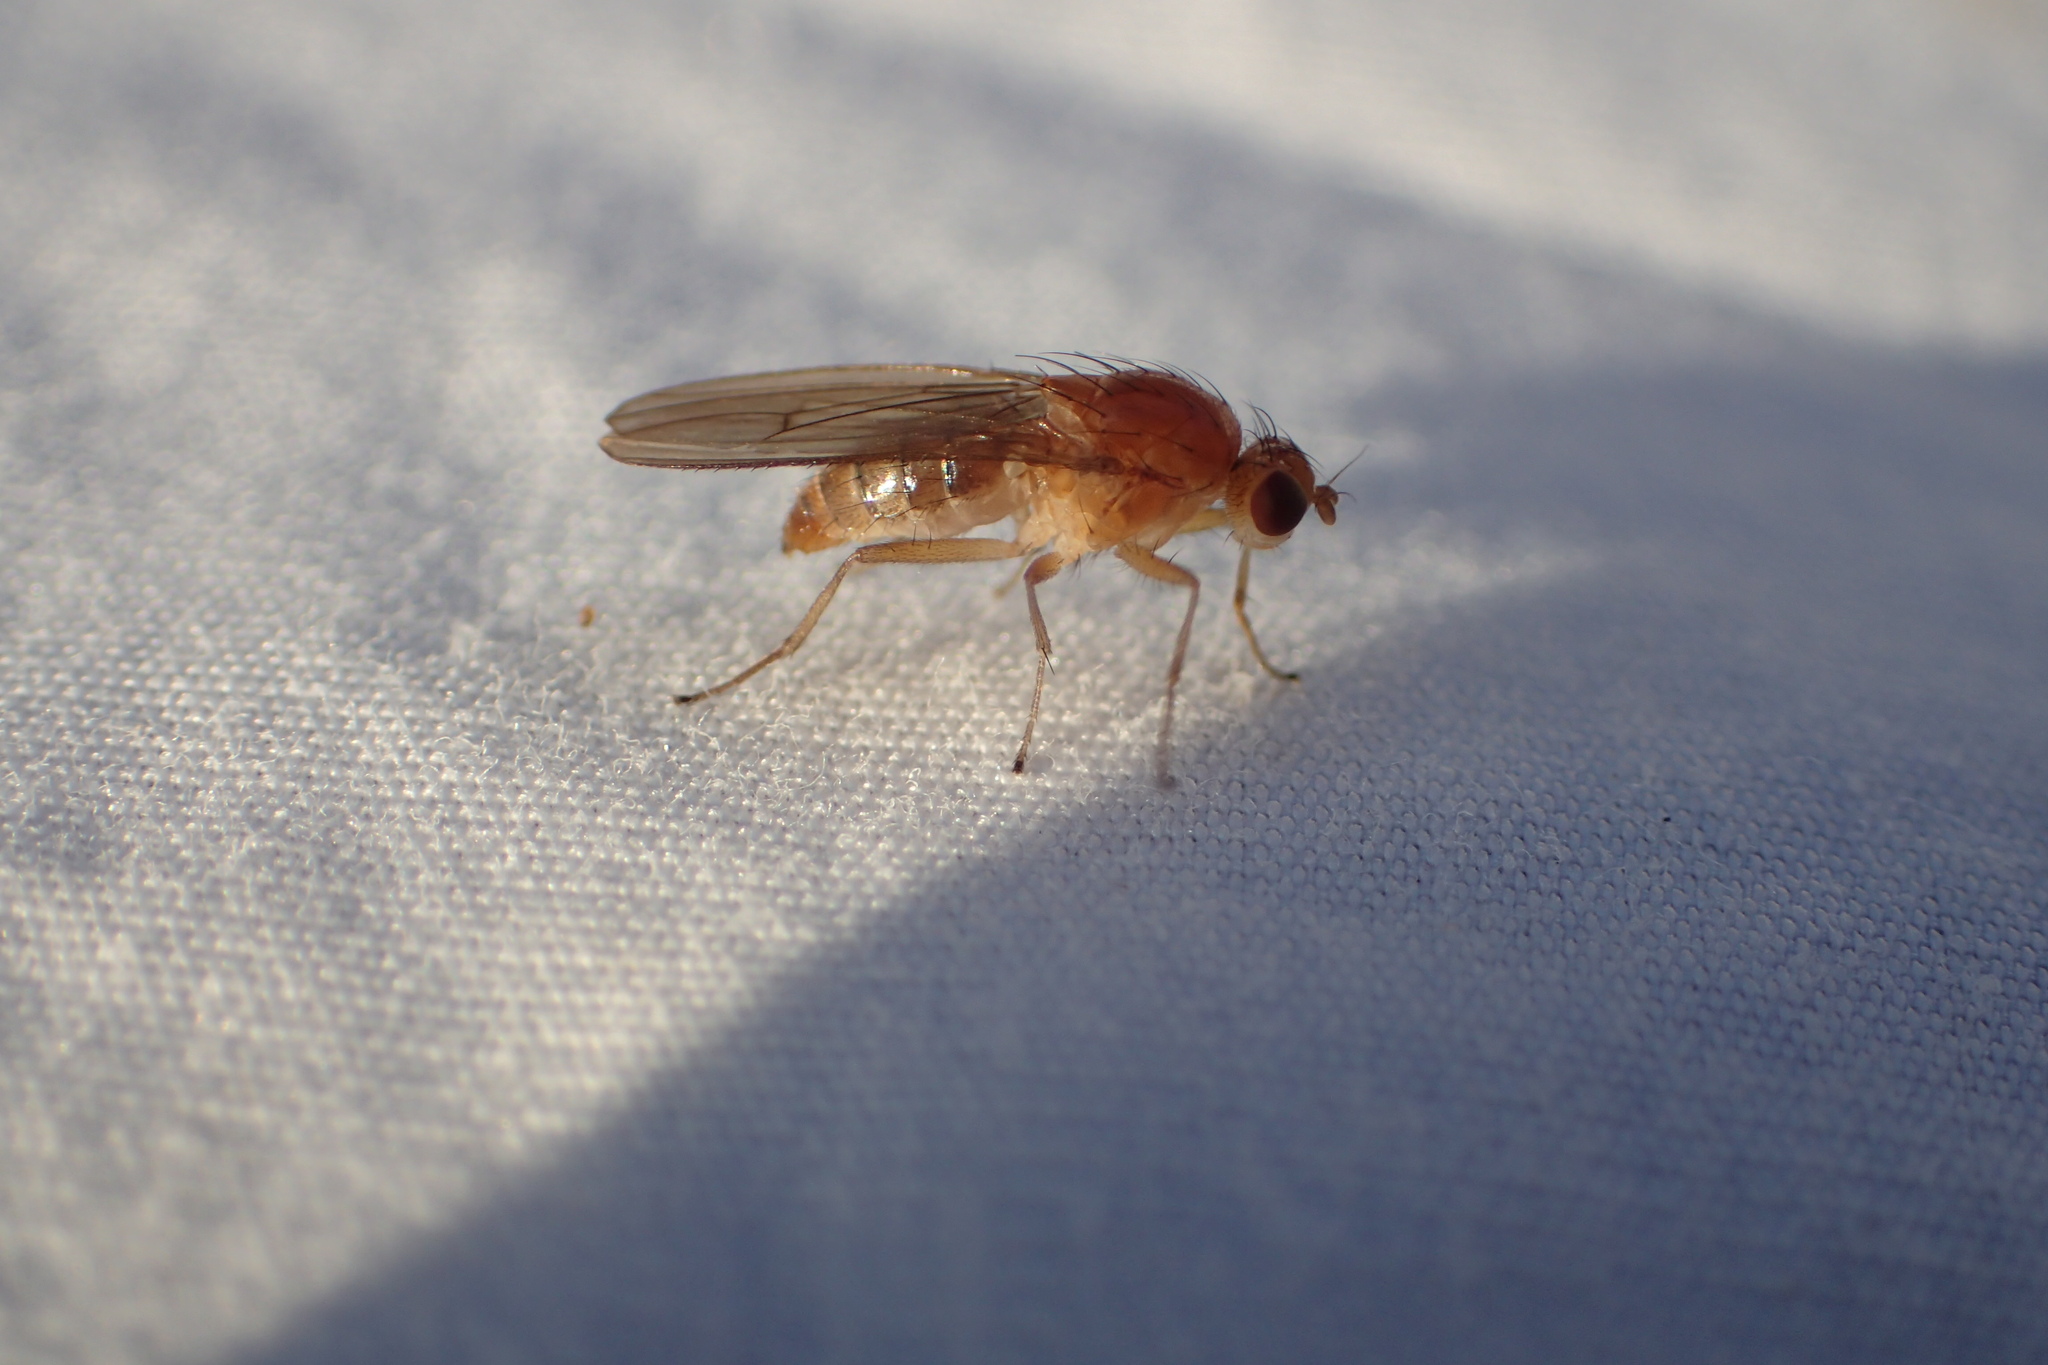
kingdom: Animalia
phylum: Arthropoda
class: Insecta
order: Diptera
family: Heleomyzidae
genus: Allophyla
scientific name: Allophyla laevis
